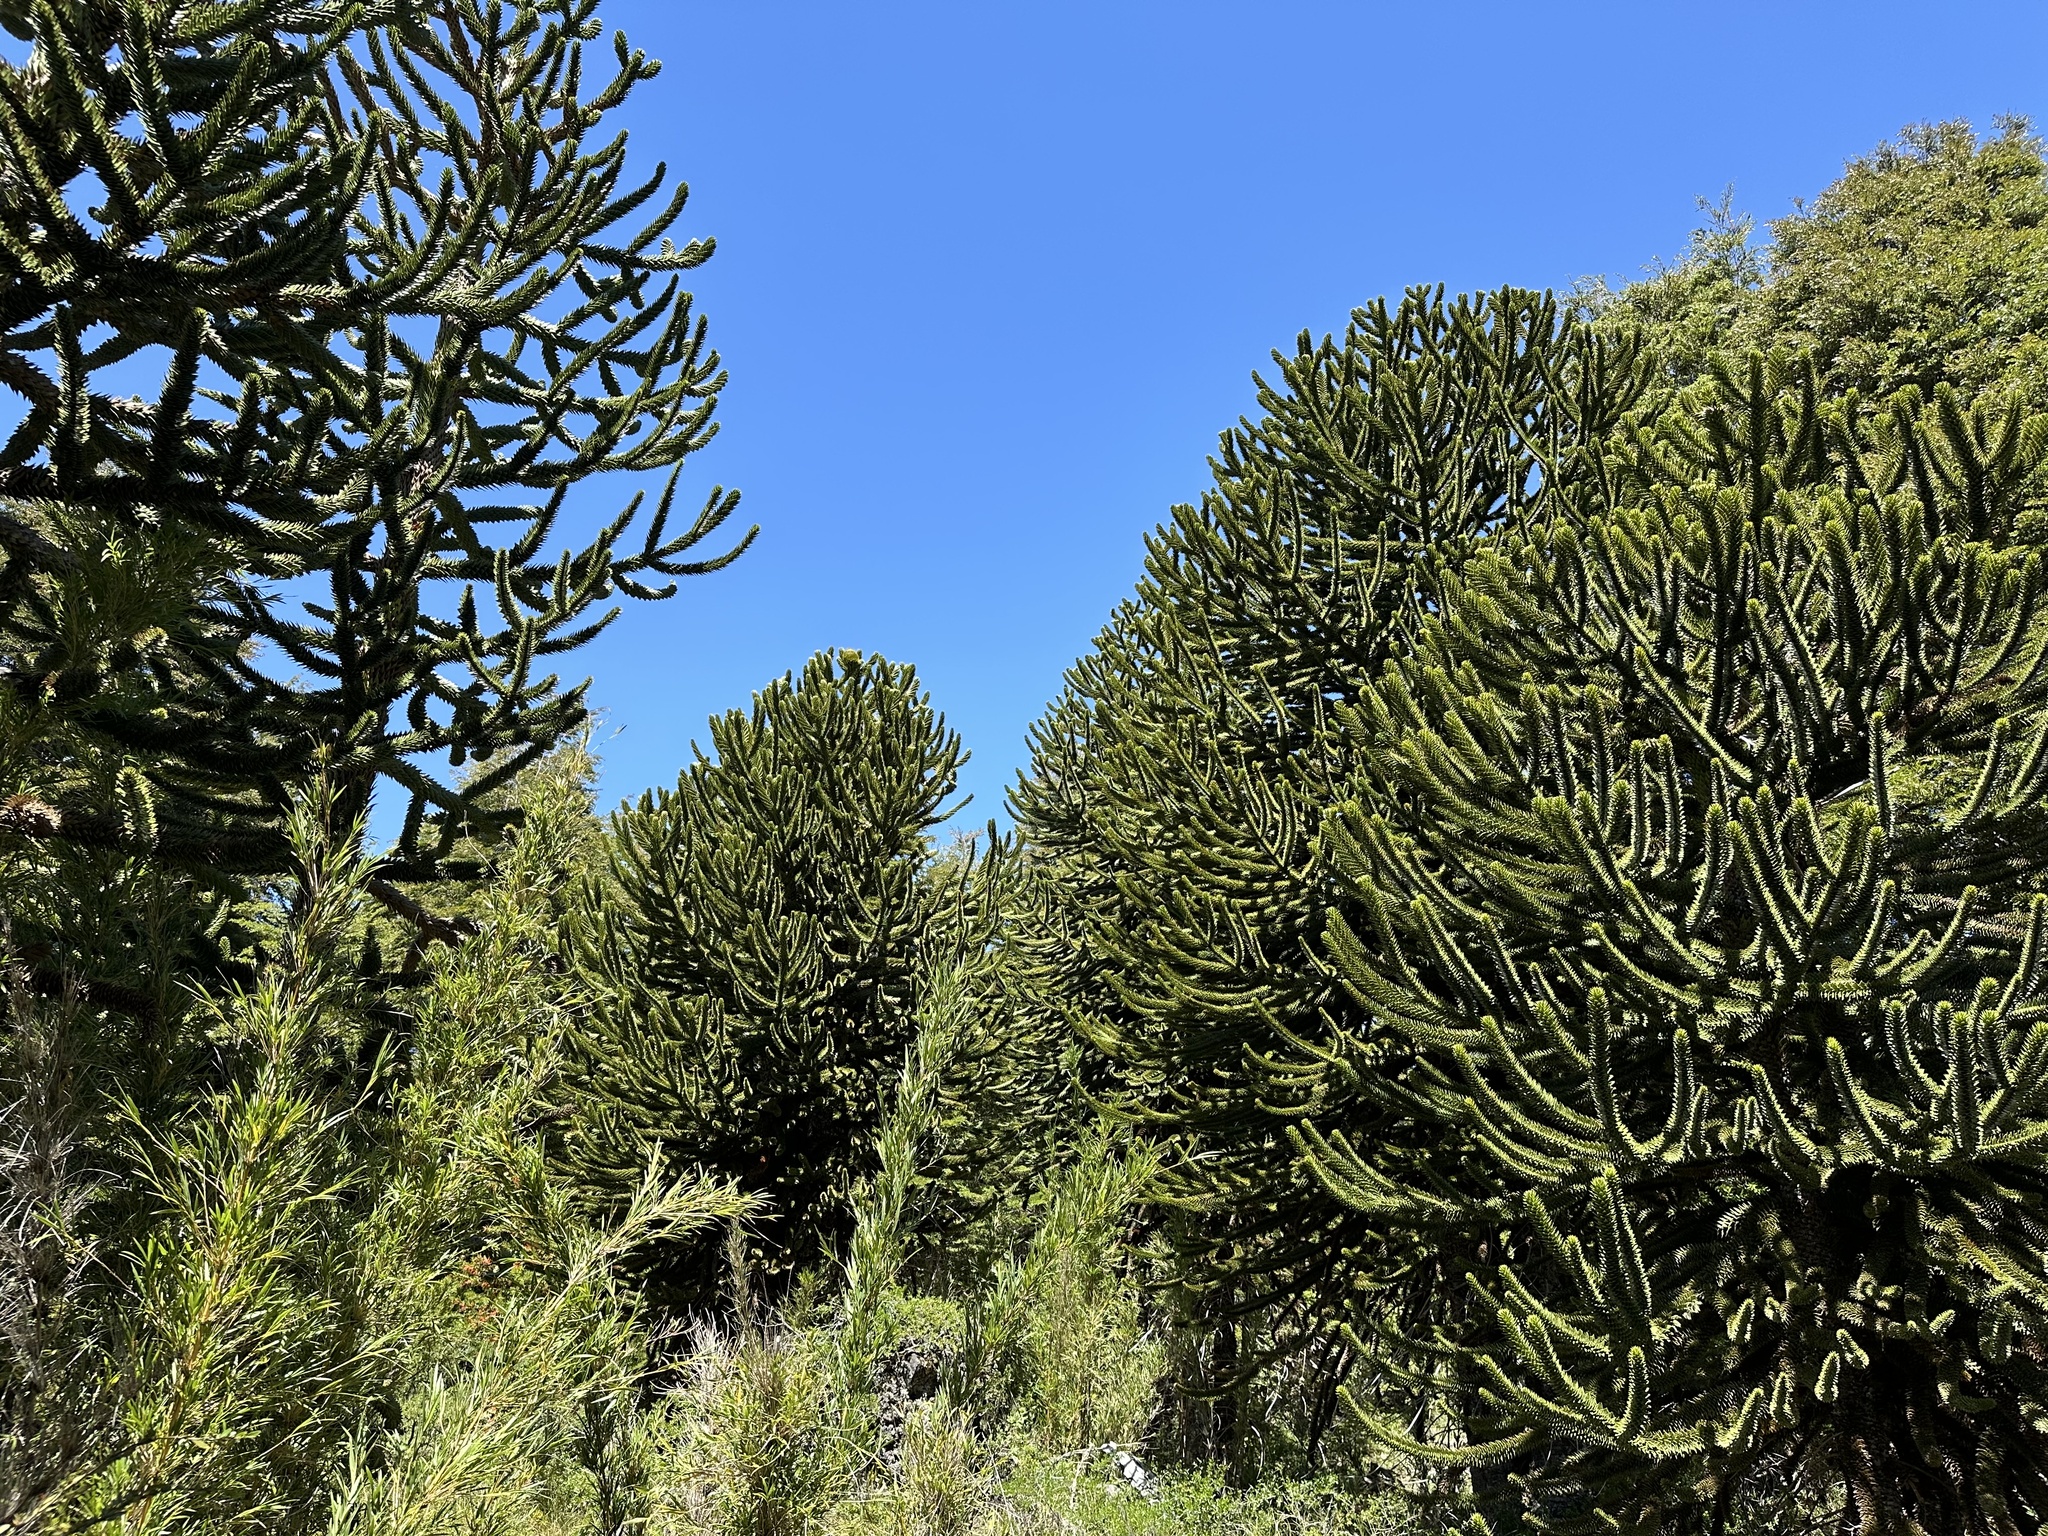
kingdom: Plantae
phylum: Tracheophyta
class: Pinopsida
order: Pinales
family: Araucariaceae
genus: Araucaria
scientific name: Araucaria araucana
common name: Monkey-puzzle
